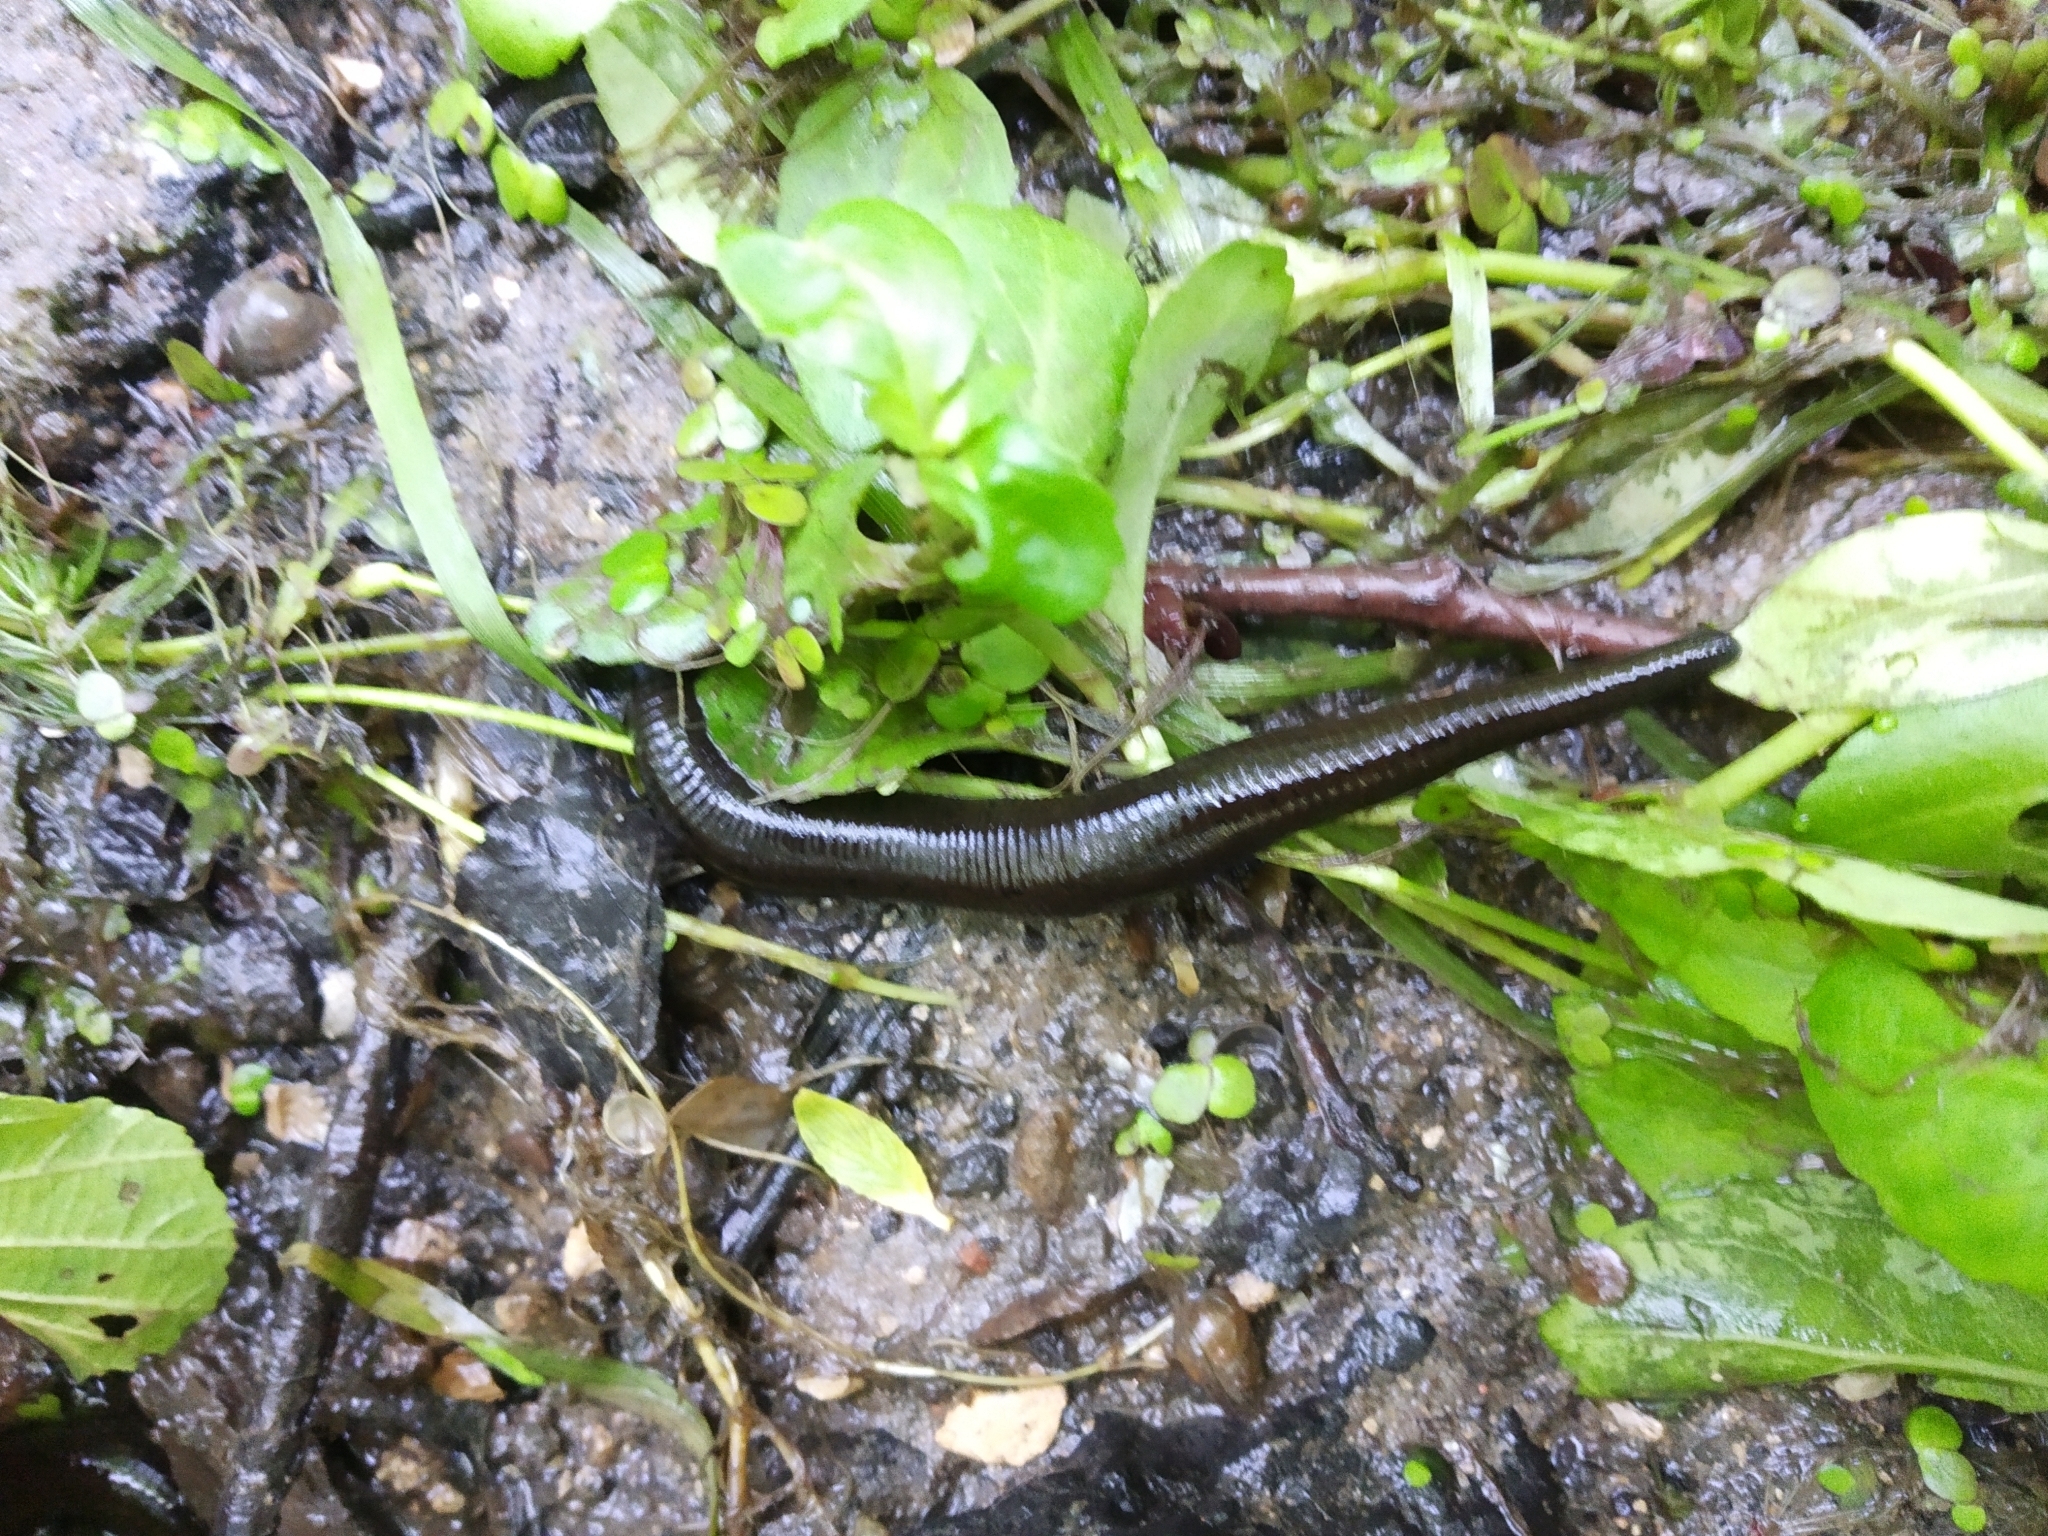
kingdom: Animalia
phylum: Annelida
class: Clitellata
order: Arhynchobdellida
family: Haemopidae
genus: Haemopis
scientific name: Haemopis sanguisuga
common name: Horse leech
